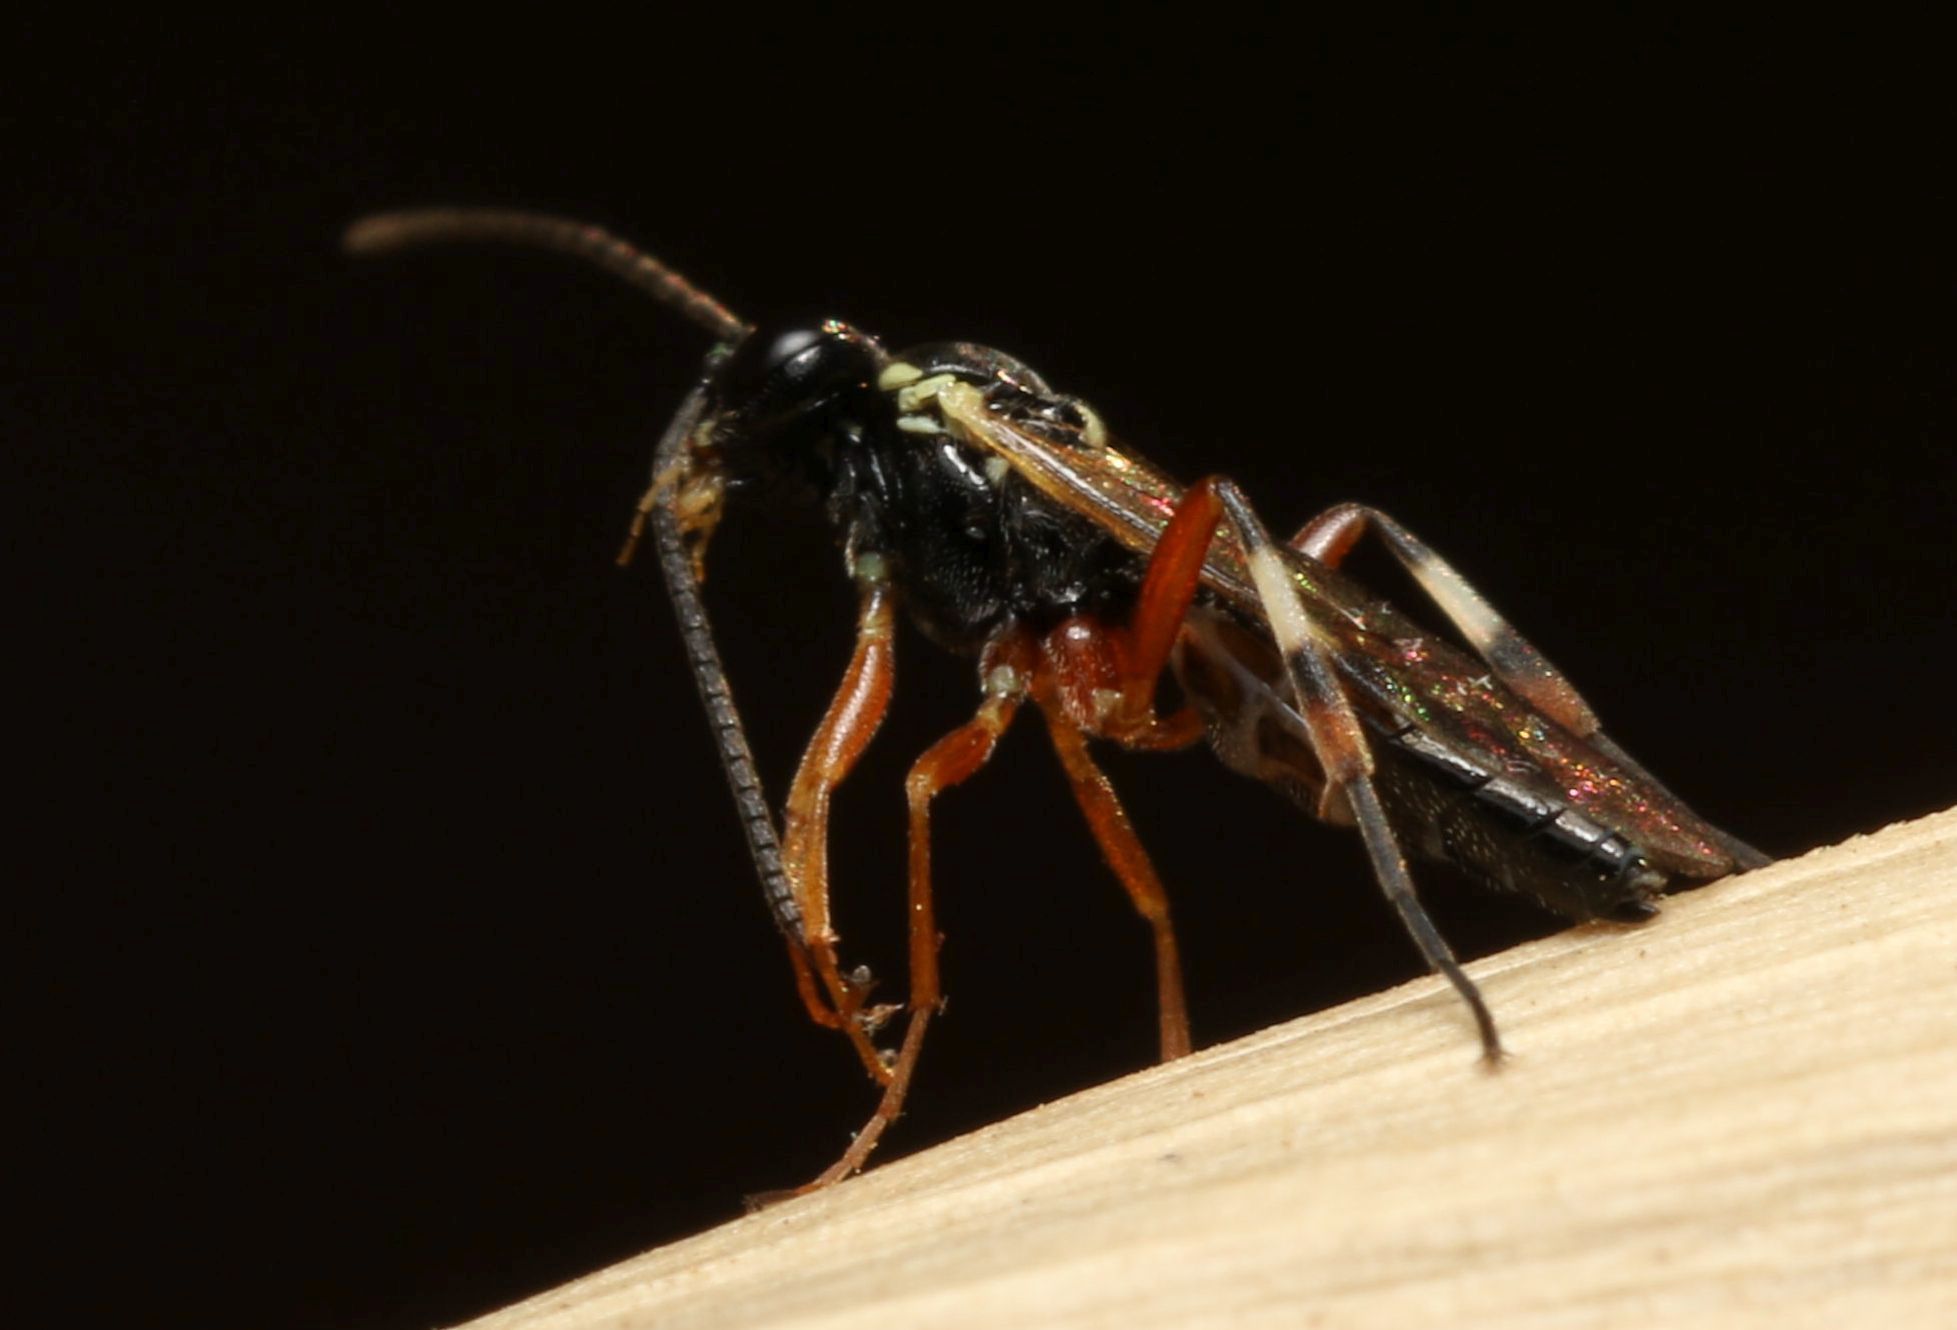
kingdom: Animalia
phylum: Arthropoda
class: Insecta
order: Hymenoptera
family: Ichneumonidae
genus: Diplazon
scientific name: Diplazon laetatorius
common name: Parasitoid wasp
